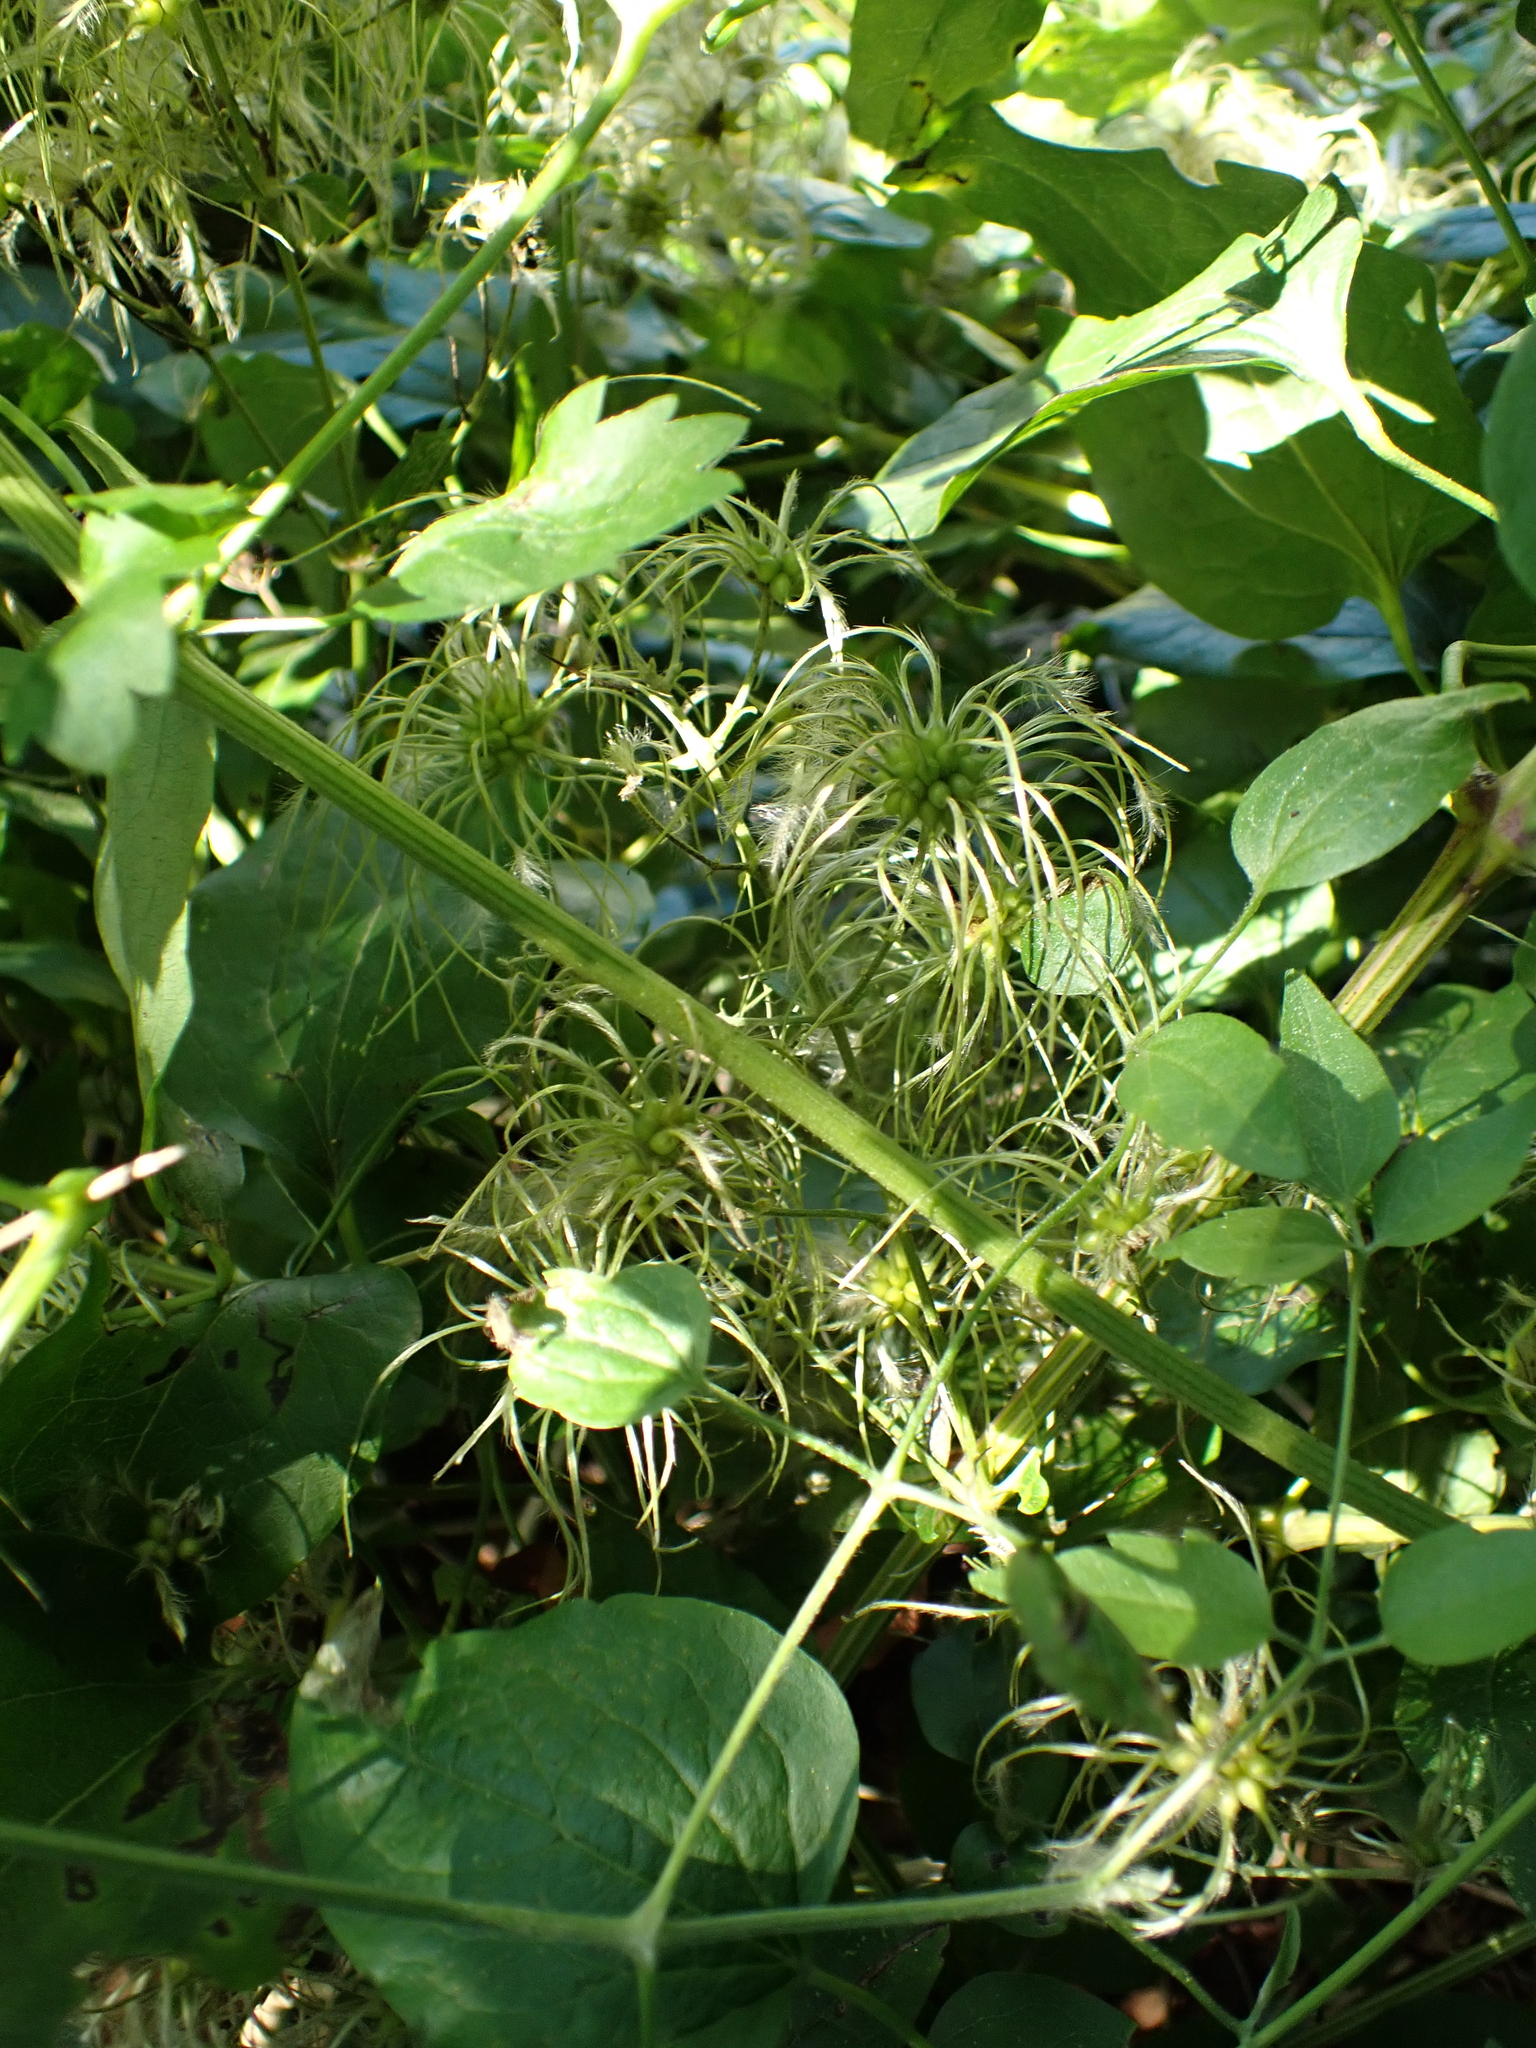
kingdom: Plantae
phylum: Tracheophyta
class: Magnoliopsida
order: Ranunculales
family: Ranunculaceae
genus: Clematis
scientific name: Clematis vitalba
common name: Evergreen clematis
